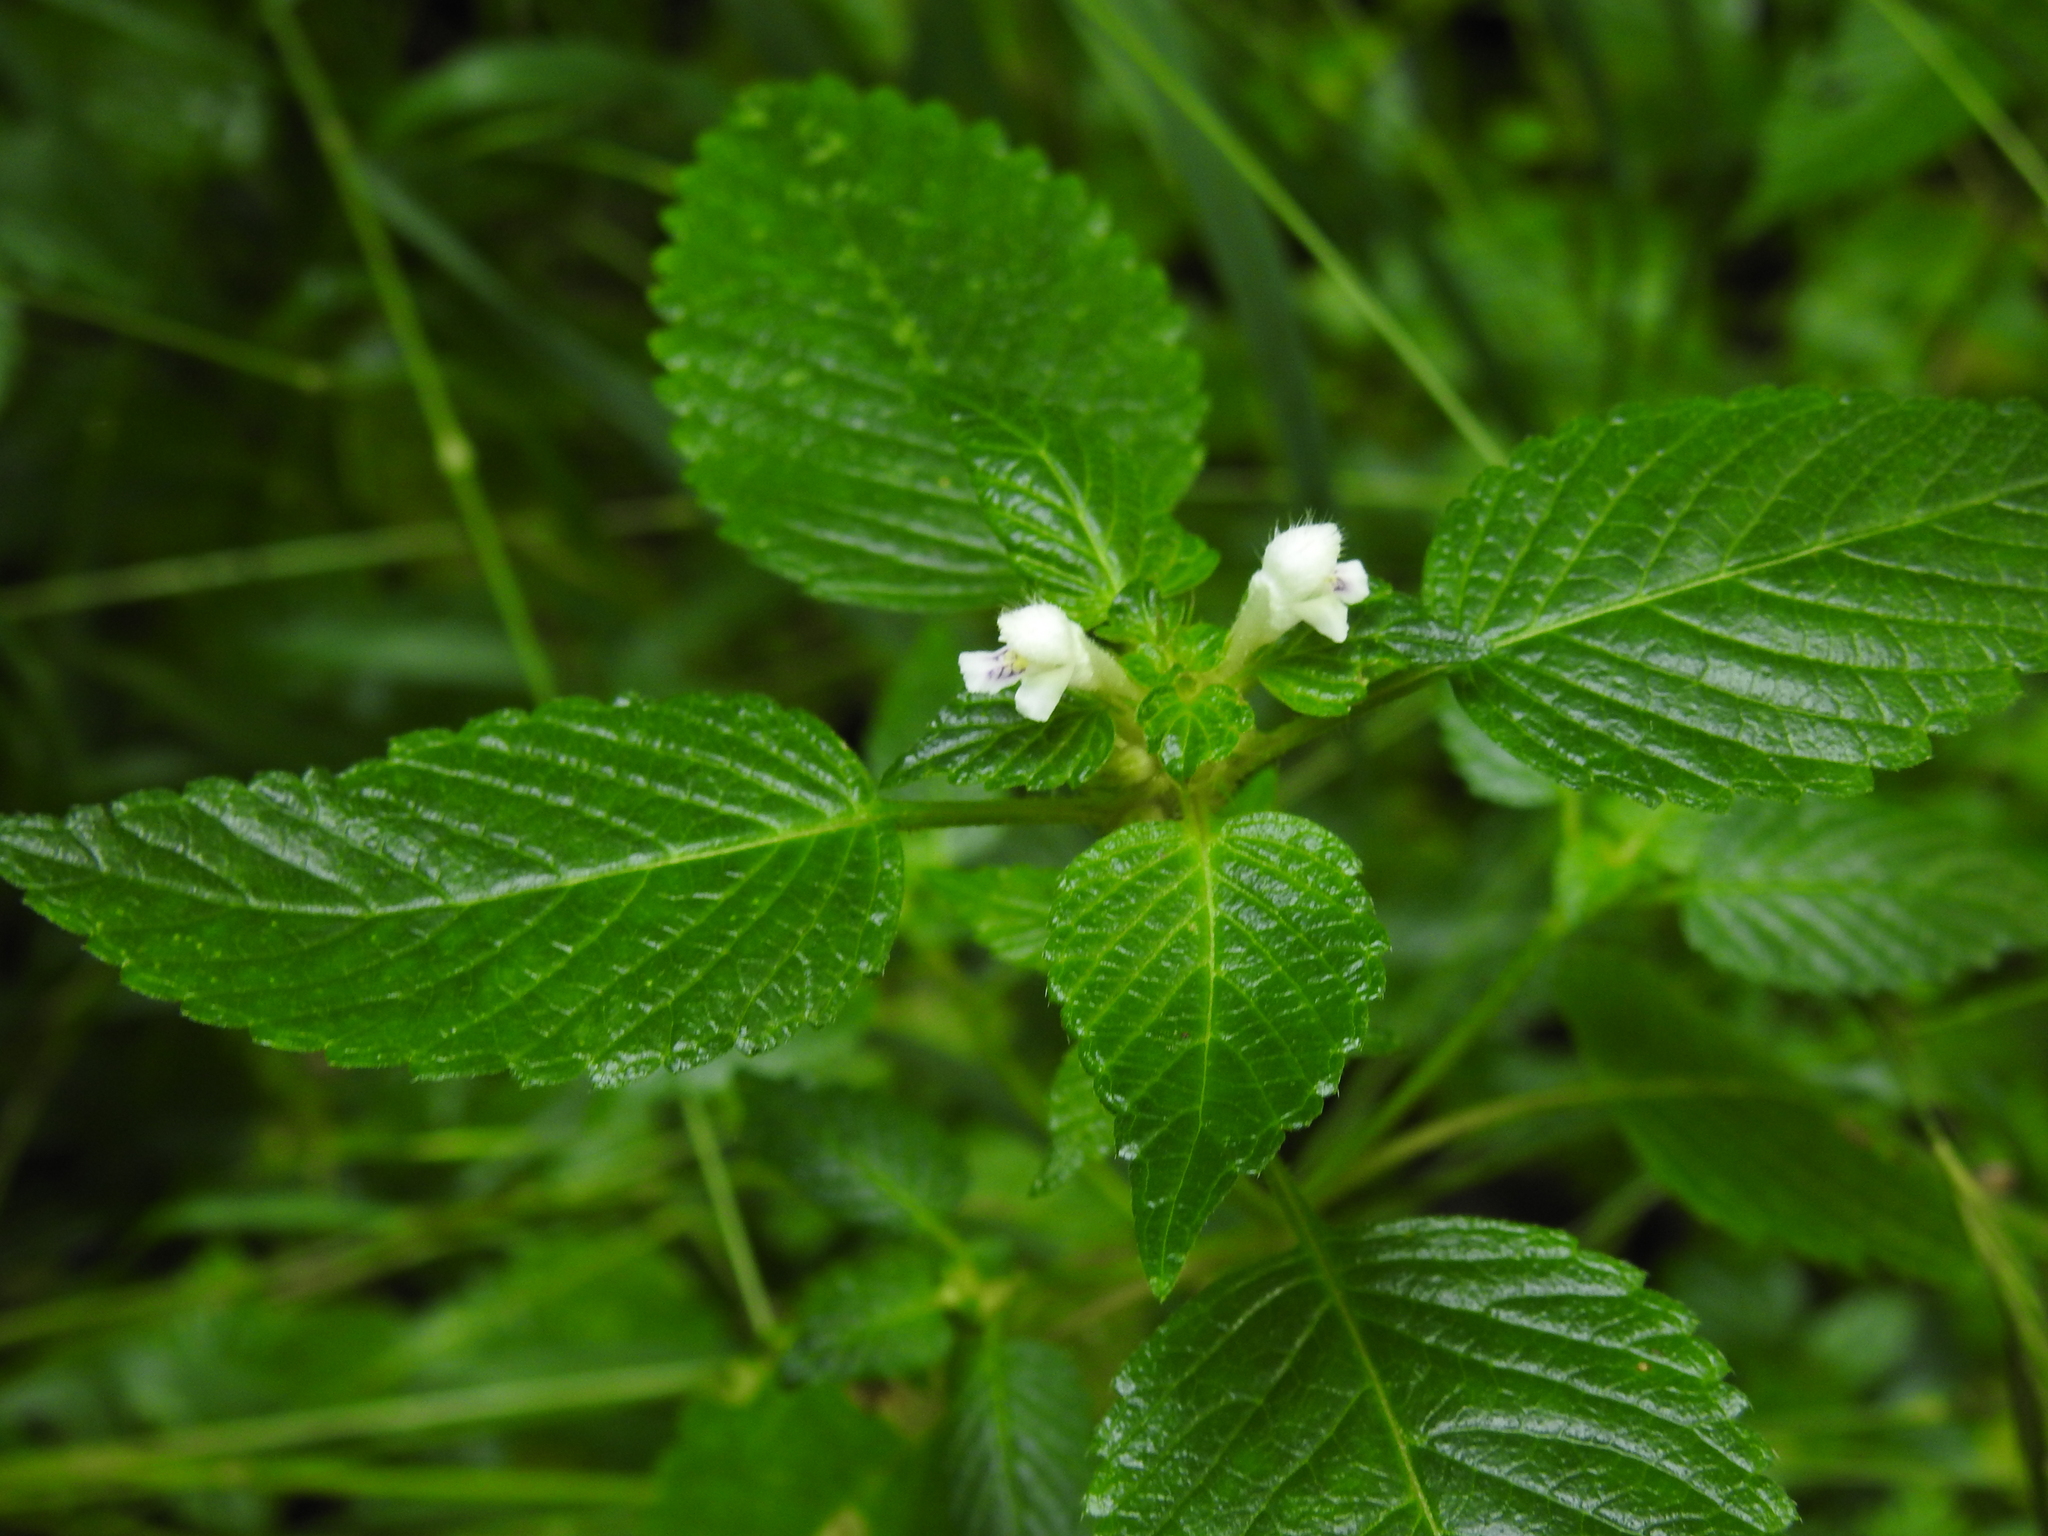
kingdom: Plantae
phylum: Tracheophyta
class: Magnoliopsida
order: Lamiales
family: Lamiaceae
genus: Galeopsis
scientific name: Galeopsis tetrahit
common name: Common hemp-nettle
